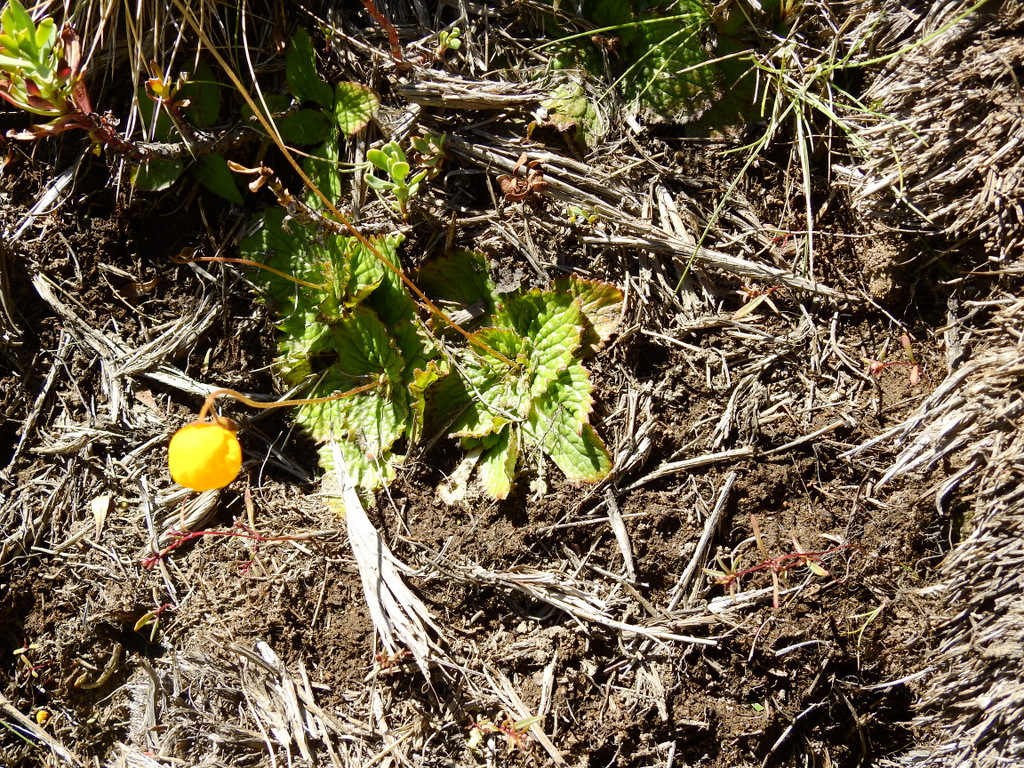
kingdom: Plantae
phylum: Tracheophyta
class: Magnoliopsida
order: Lamiales
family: Calceolariaceae
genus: Calceolaria
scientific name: Calceolaria filicaulis
